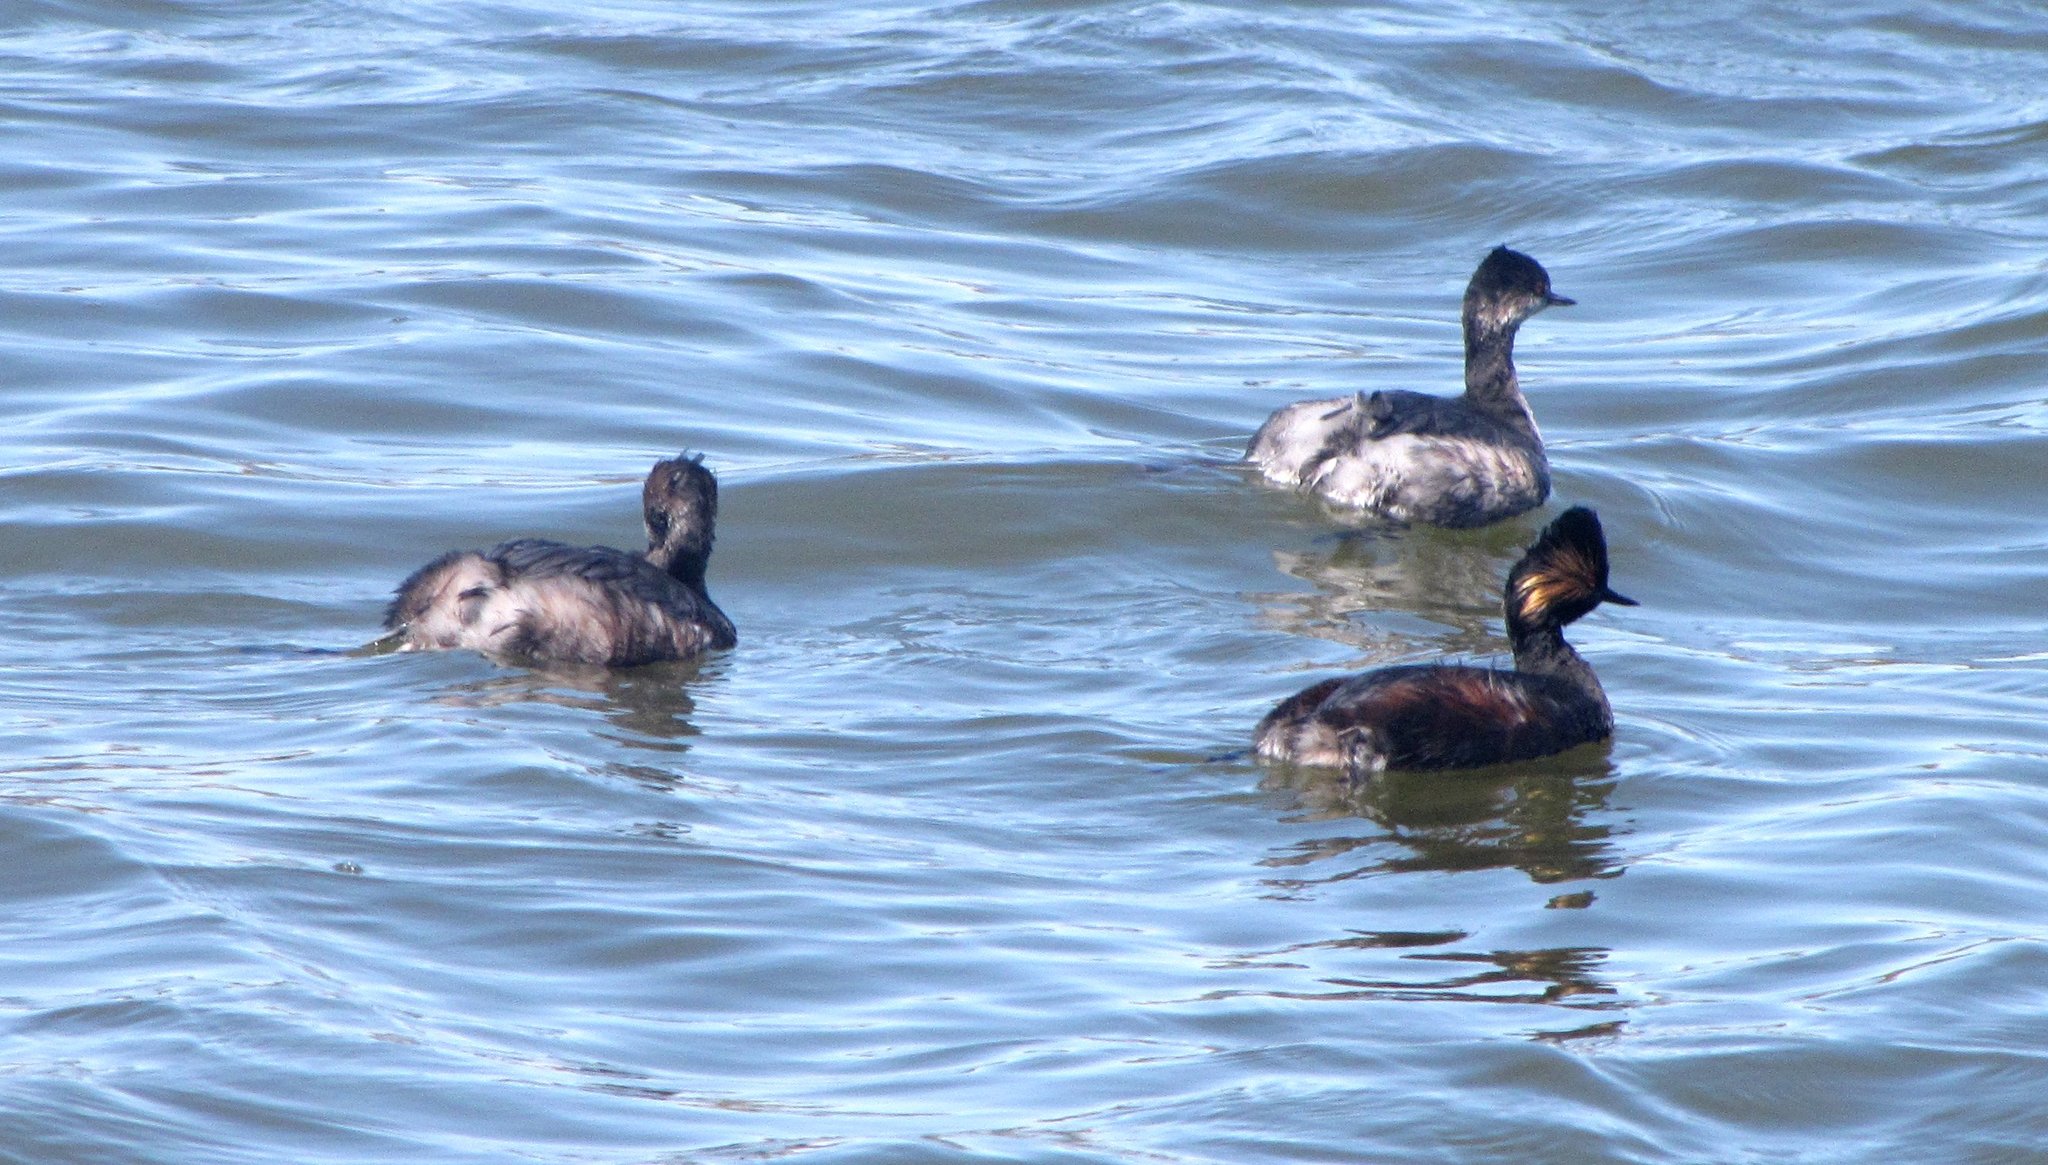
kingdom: Animalia
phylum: Chordata
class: Aves
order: Podicipediformes
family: Podicipedidae
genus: Podiceps
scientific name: Podiceps nigricollis
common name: Black-necked grebe
